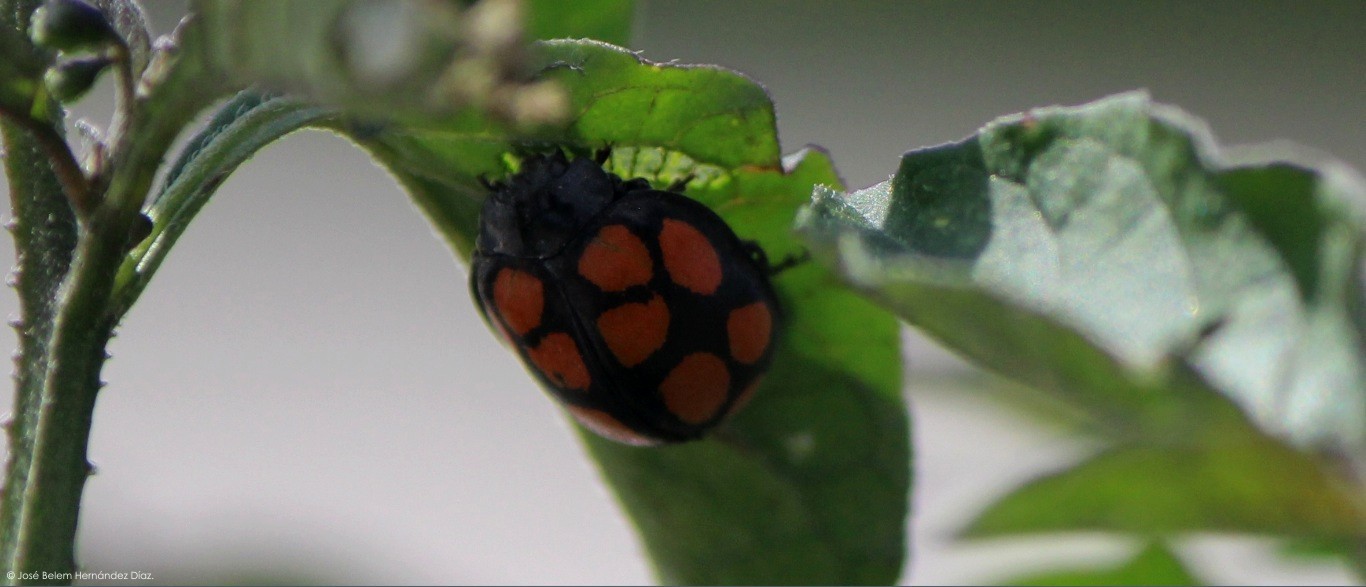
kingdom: Animalia
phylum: Arthropoda
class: Insecta
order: Coleoptera
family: Coccinellidae
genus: Epilachna
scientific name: Epilachna
